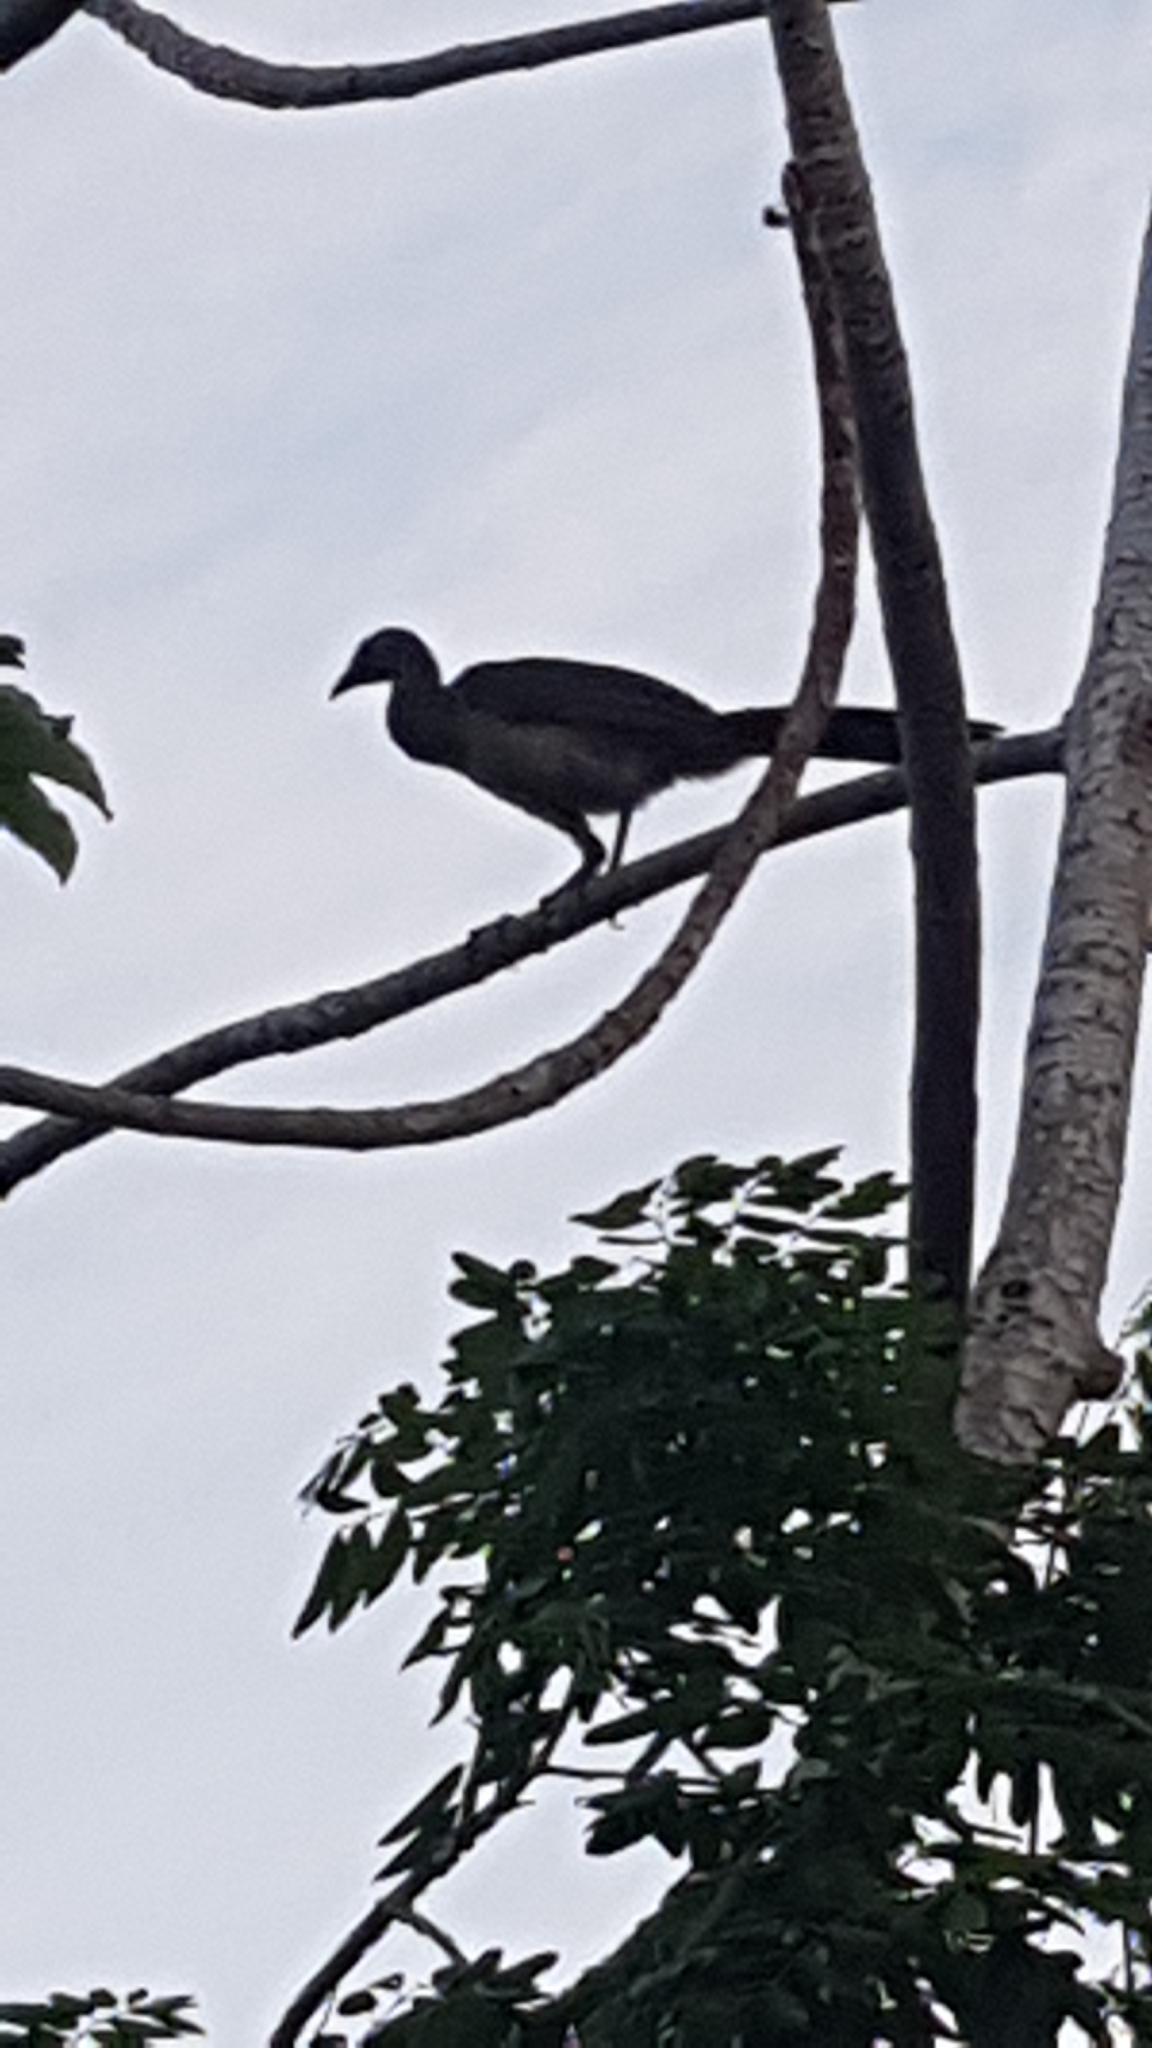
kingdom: Animalia
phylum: Chordata
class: Aves
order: Galliformes
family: Cracidae
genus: Ortalis
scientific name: Ortalis vetula
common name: Plain chachalaca
